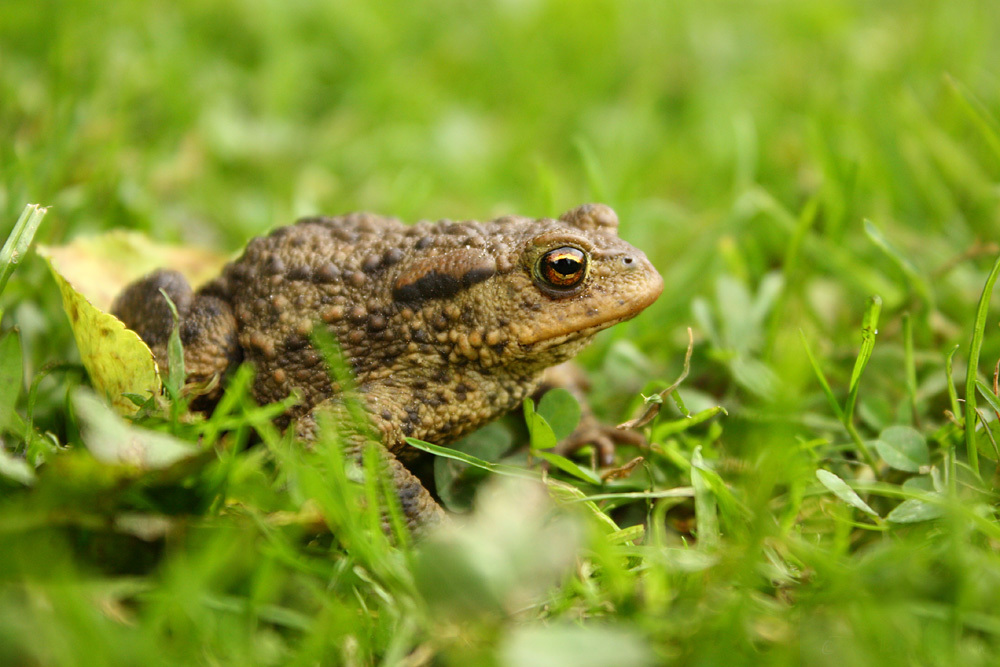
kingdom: Animalia
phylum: Chordata
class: Amphibia
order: Anura
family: Bufonidae
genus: Bufo
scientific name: Bufo bufo
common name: Common toad
